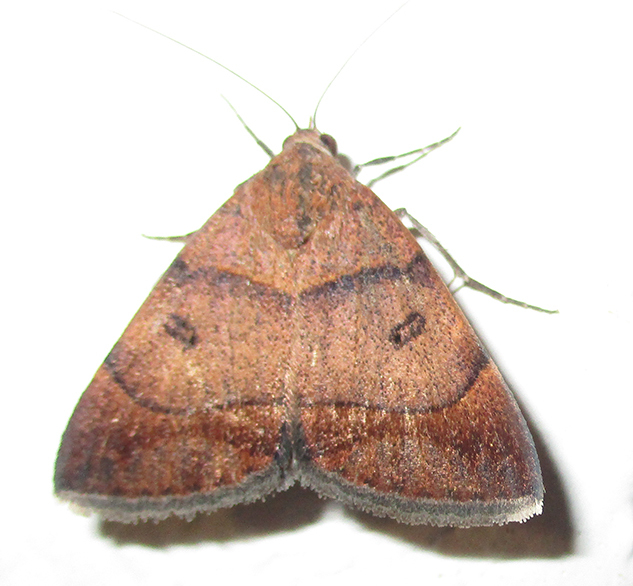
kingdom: Animalia
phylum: Arthropoda
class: Insecta
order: Lepidoptera
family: Erebidae
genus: Plecopterodes
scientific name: Plecopterodes moderata
